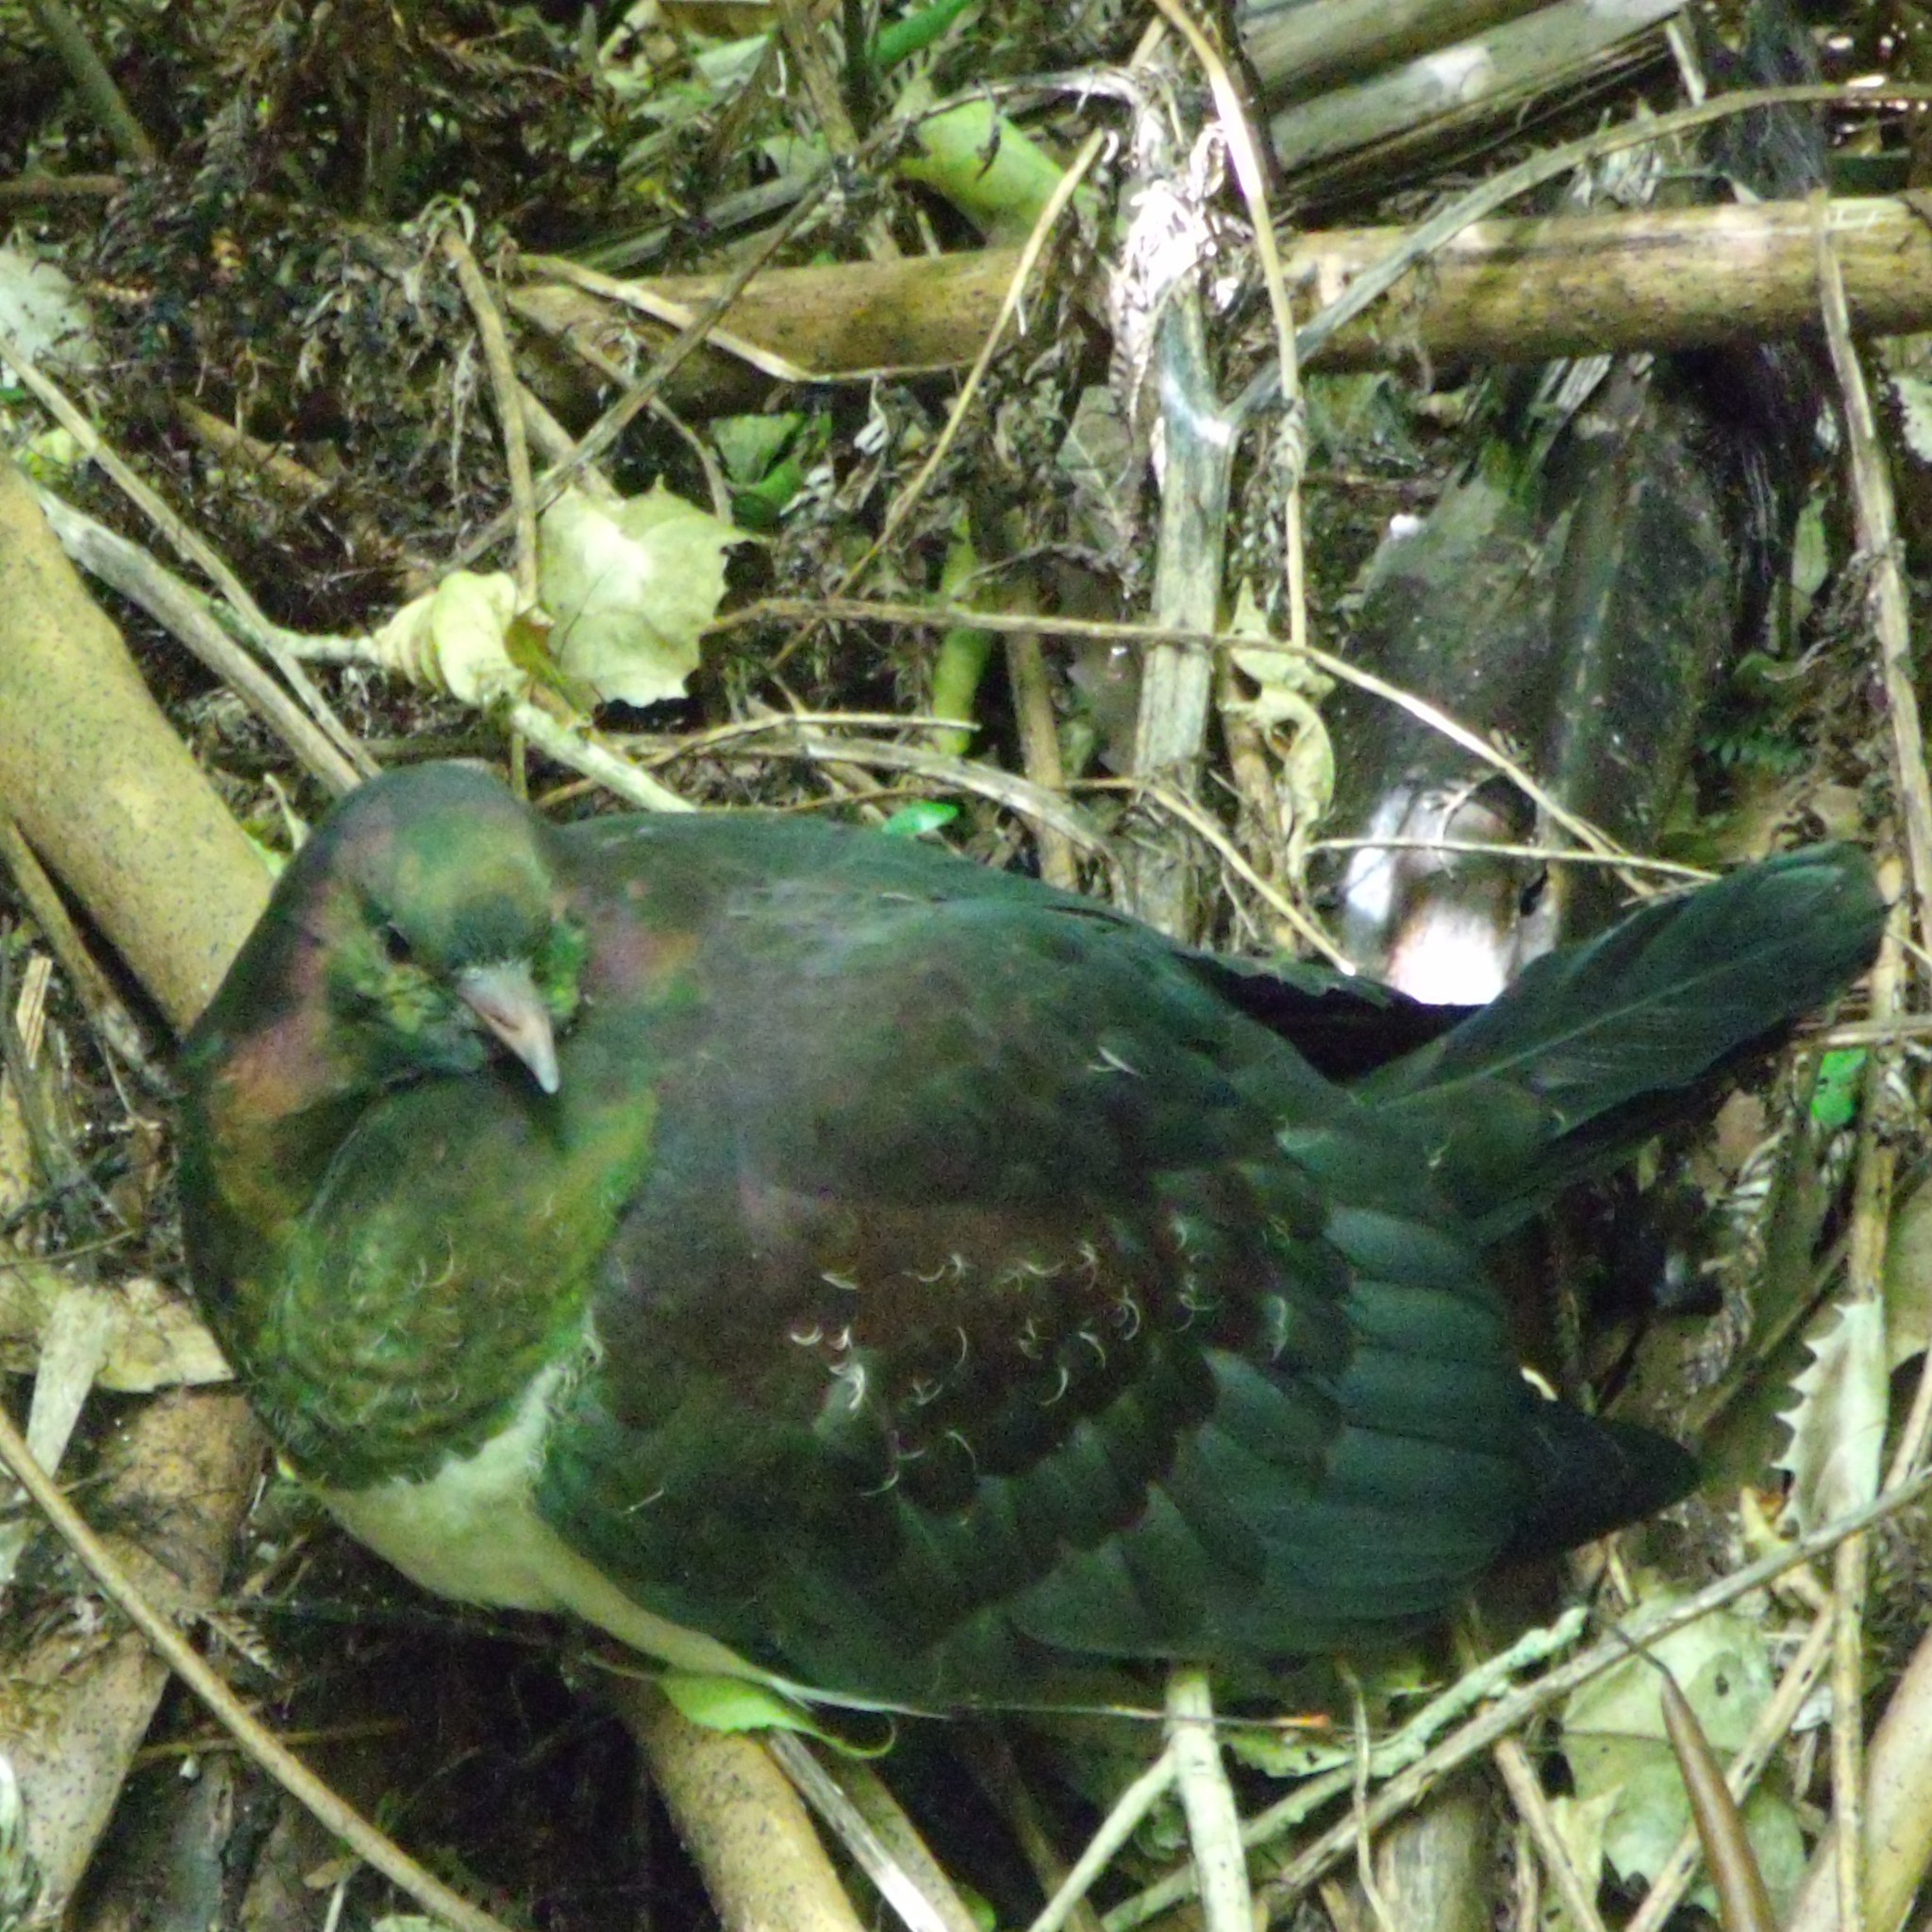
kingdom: Animalia
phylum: Chordata
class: Aves
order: Columbiformes
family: Columbidae
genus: Hemiphaga
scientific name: Hemiphaga novaeseelandiae
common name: New zealand pigeon
